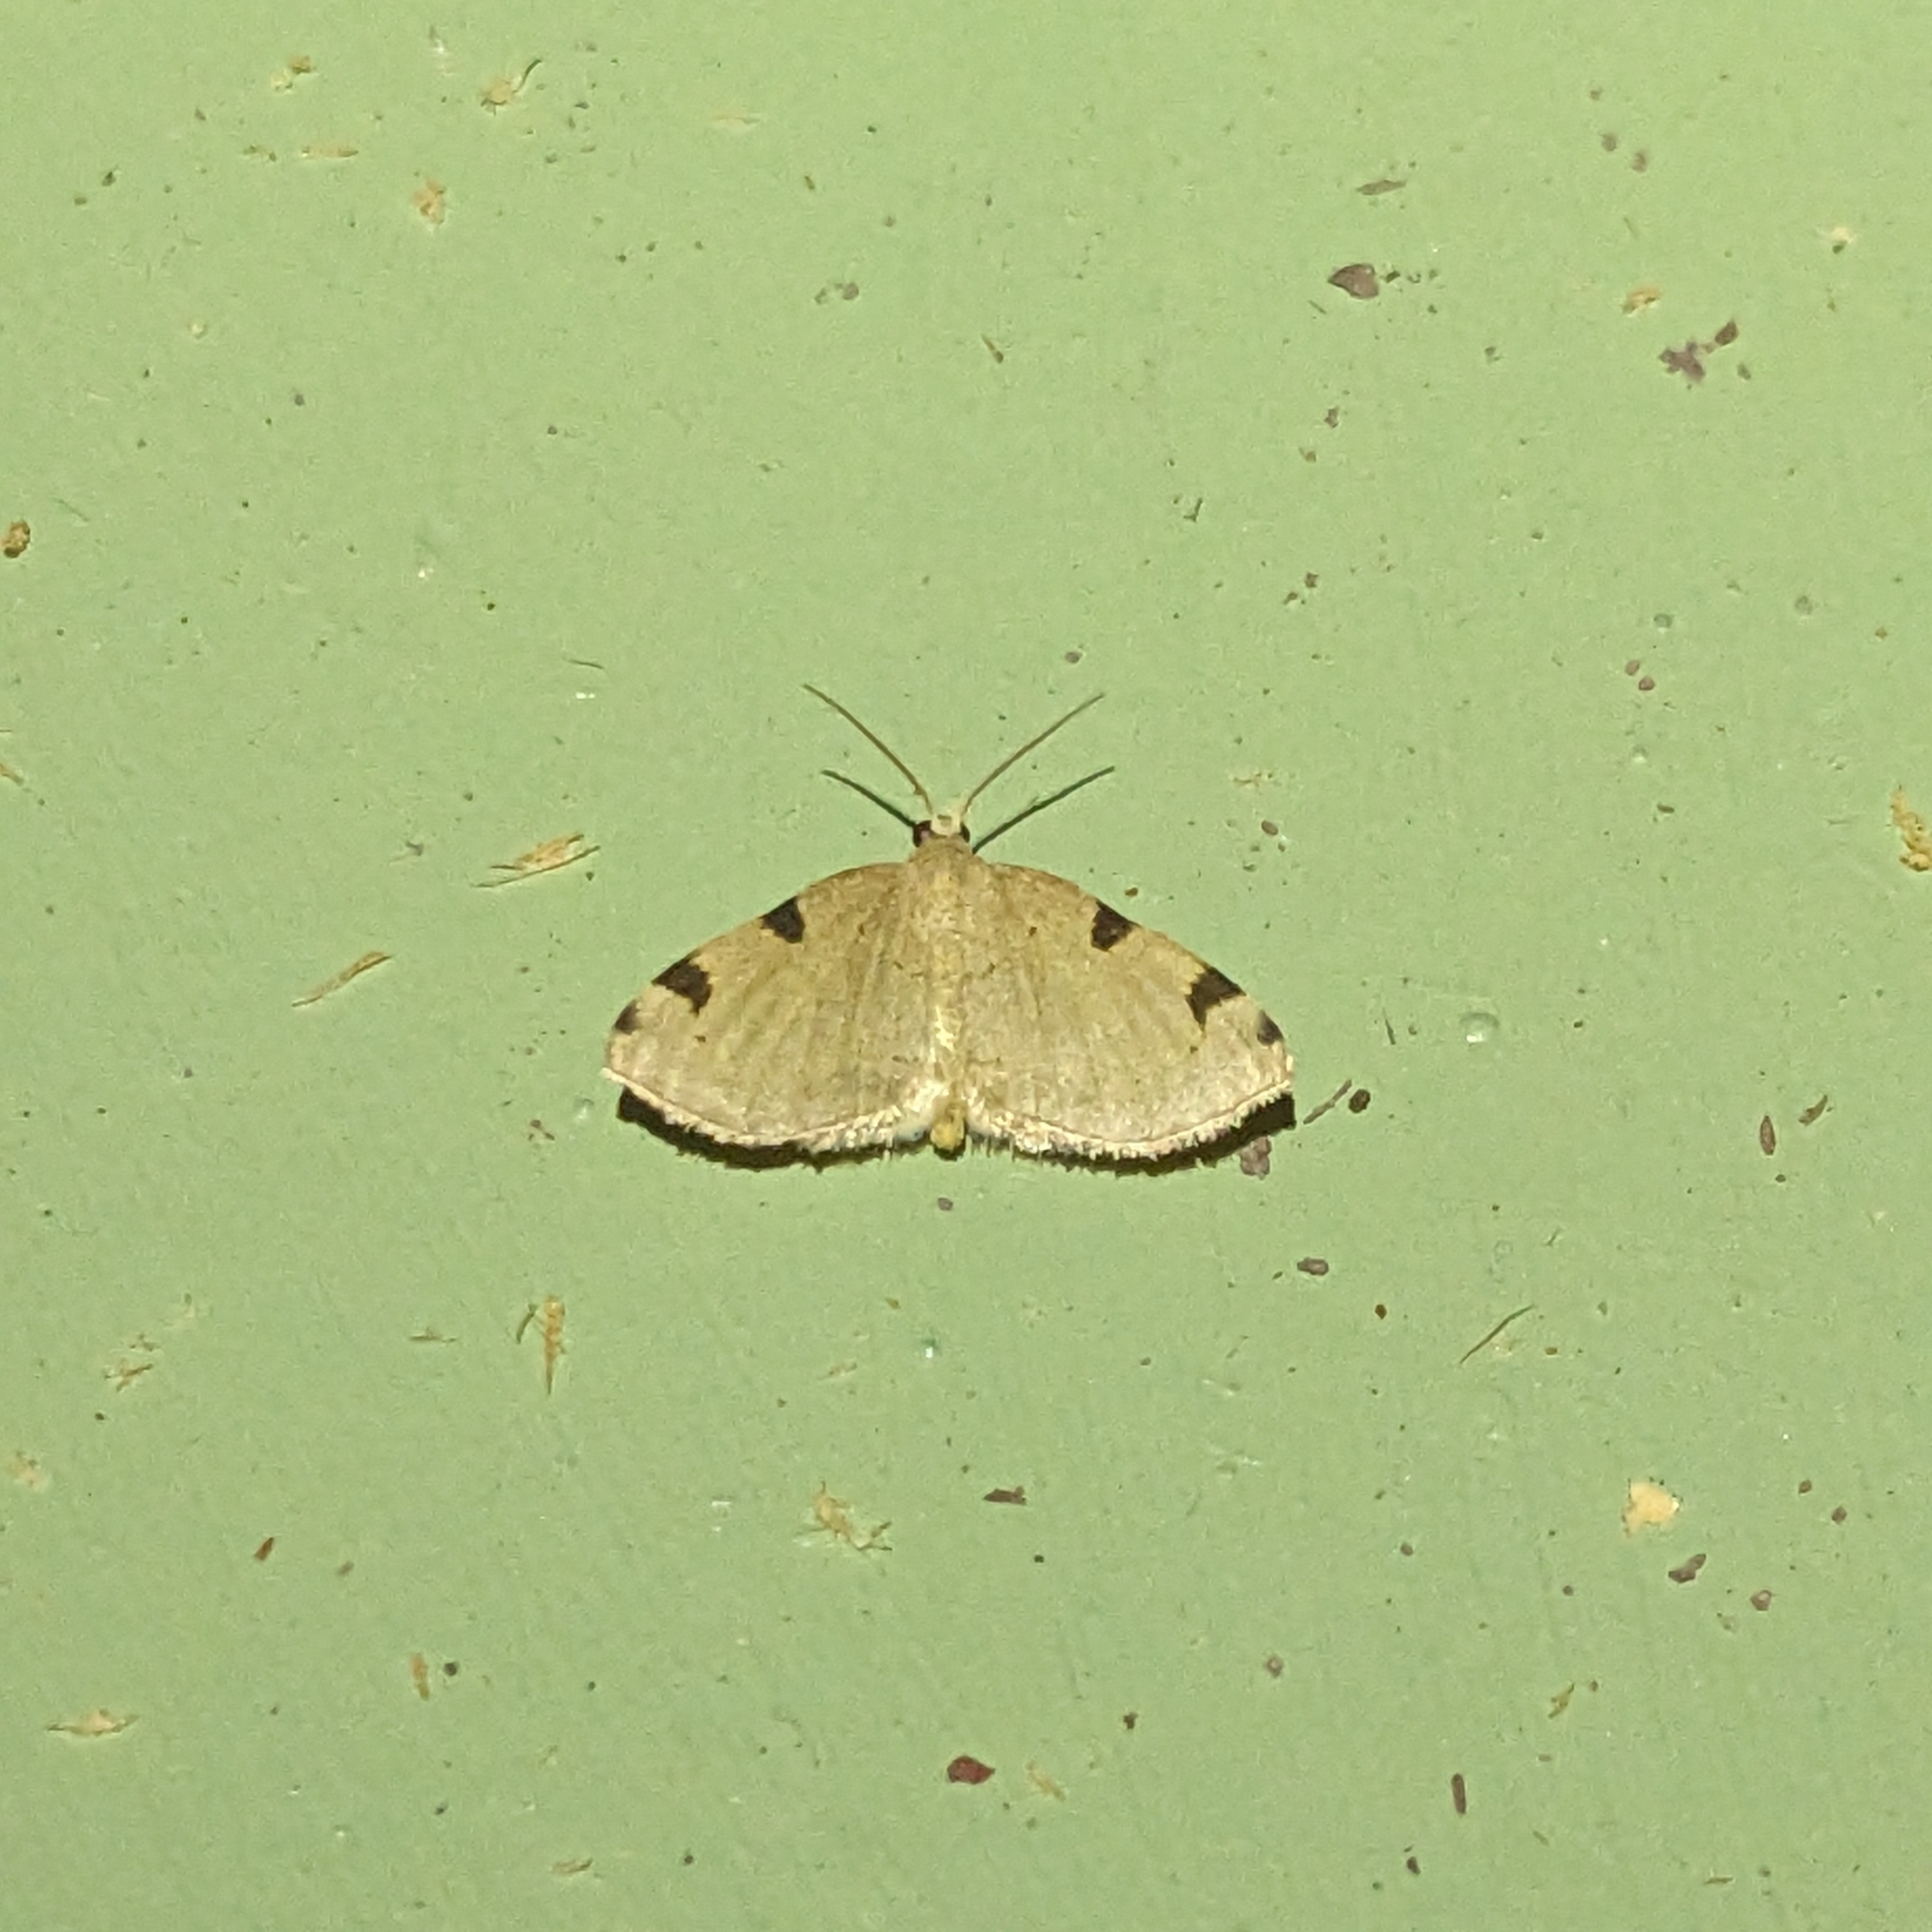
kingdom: Animalia
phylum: Arthropoda
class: Insecta
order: Lepidoptera
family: Geometridae
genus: Heterophleps
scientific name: Heterophleps triguttaria
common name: Three-spotted fillip
